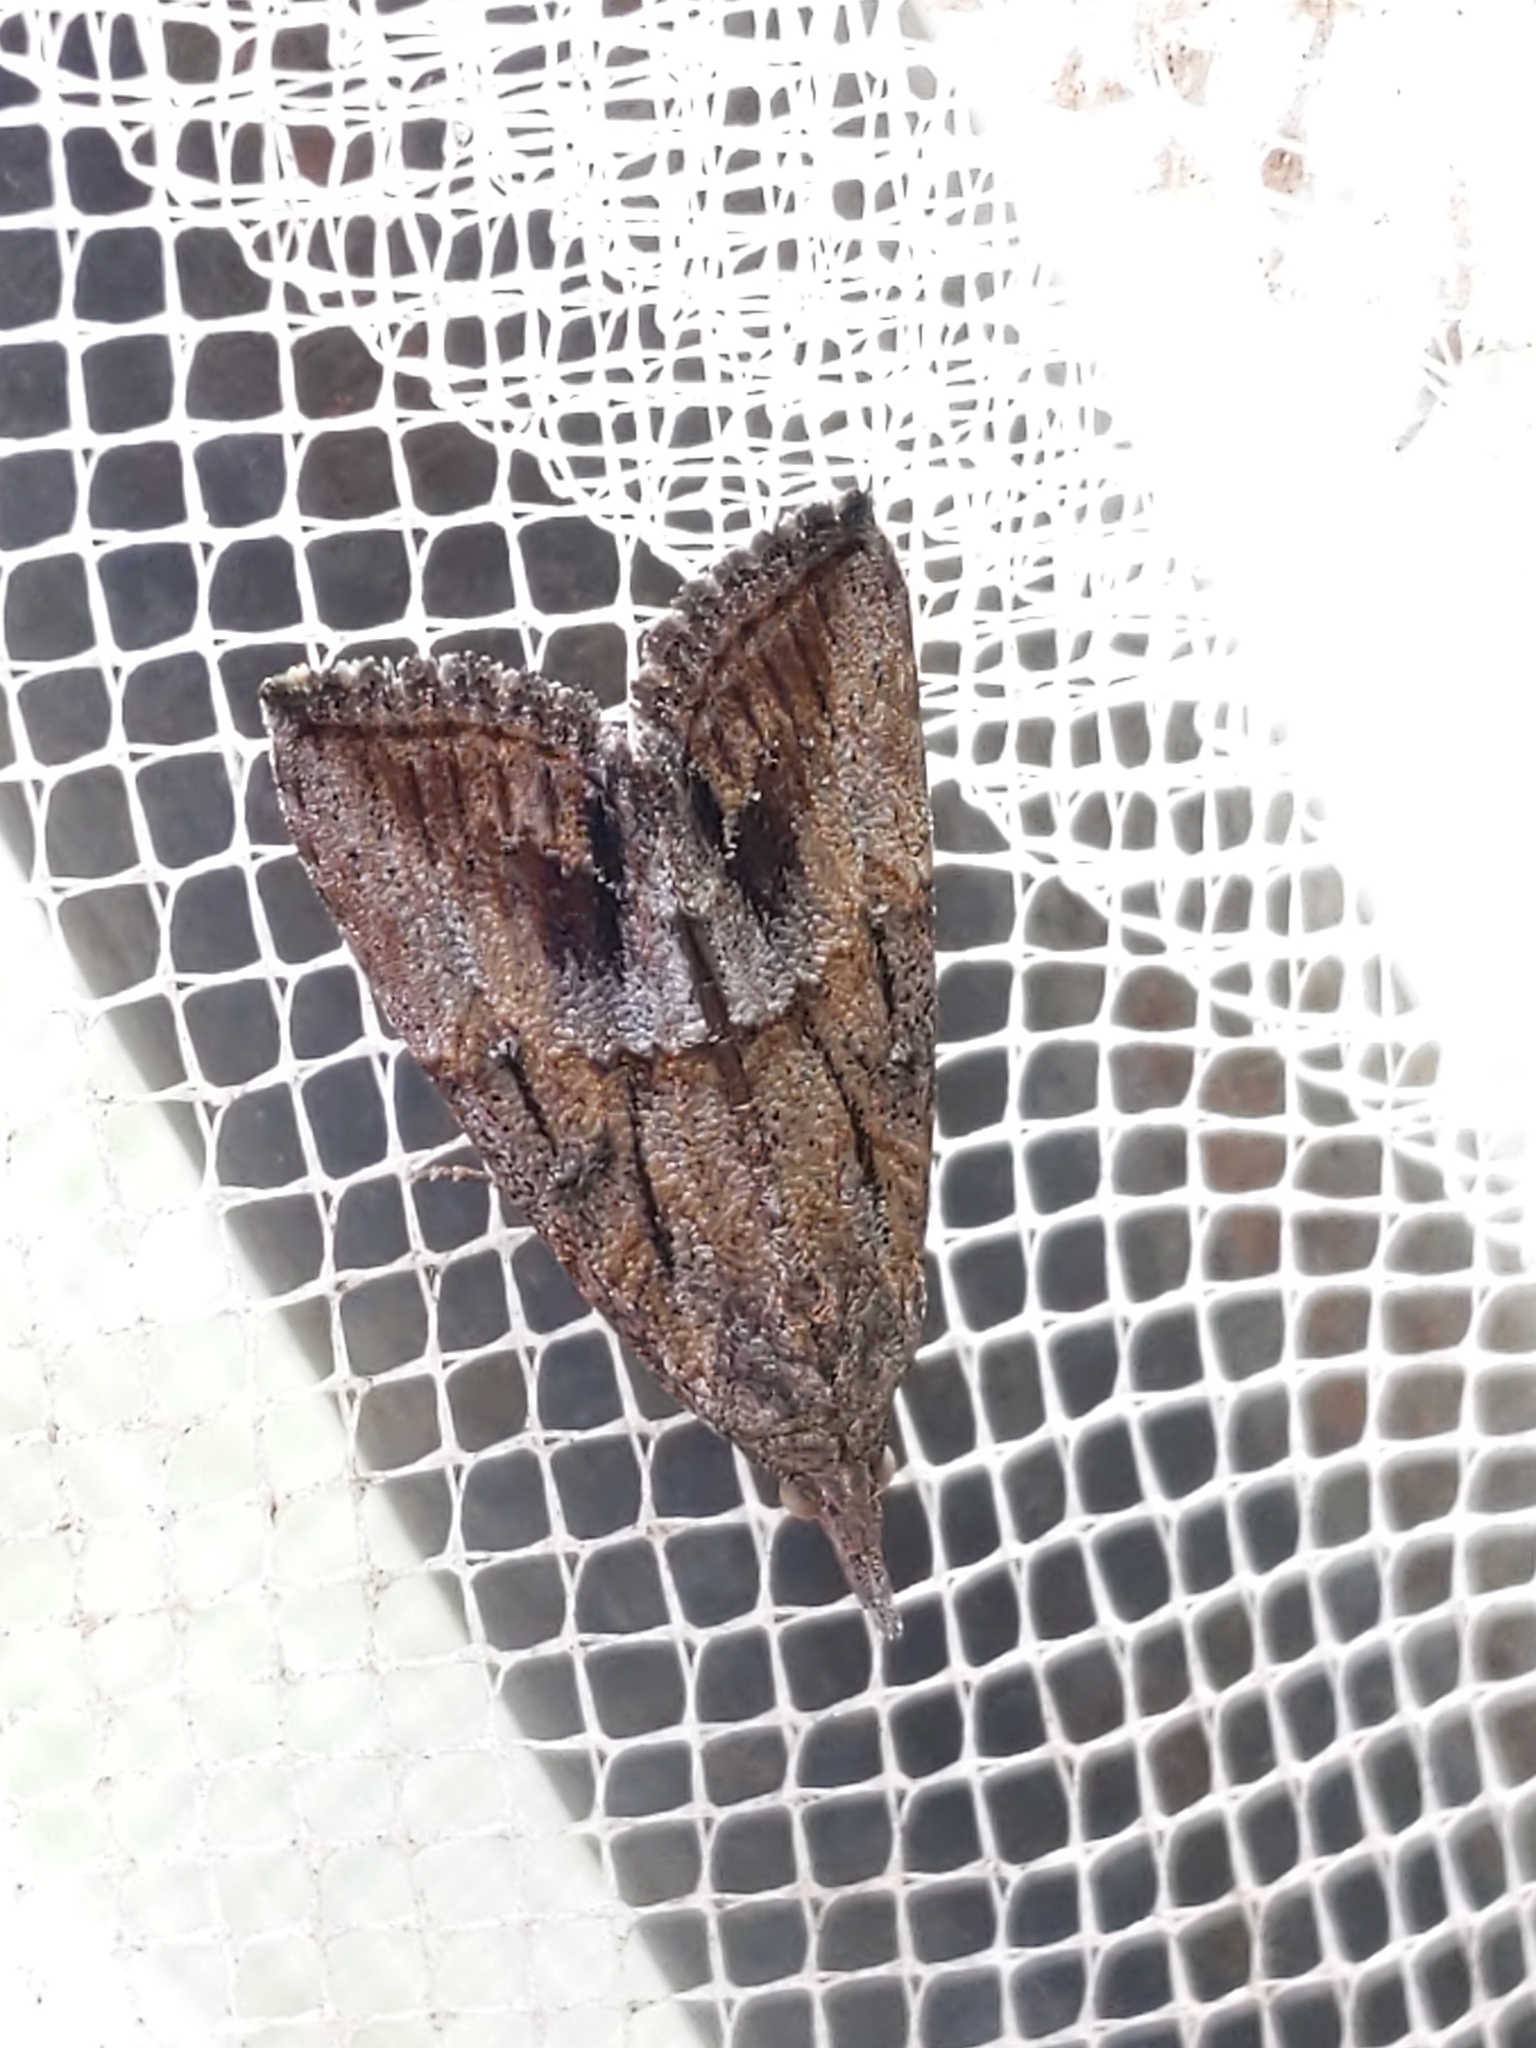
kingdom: Animalia
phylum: Arthropoda
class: Insecta
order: Lepidoptera
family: Erebidae
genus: Hypena
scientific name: Hypena scabra
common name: Green cloverworm
